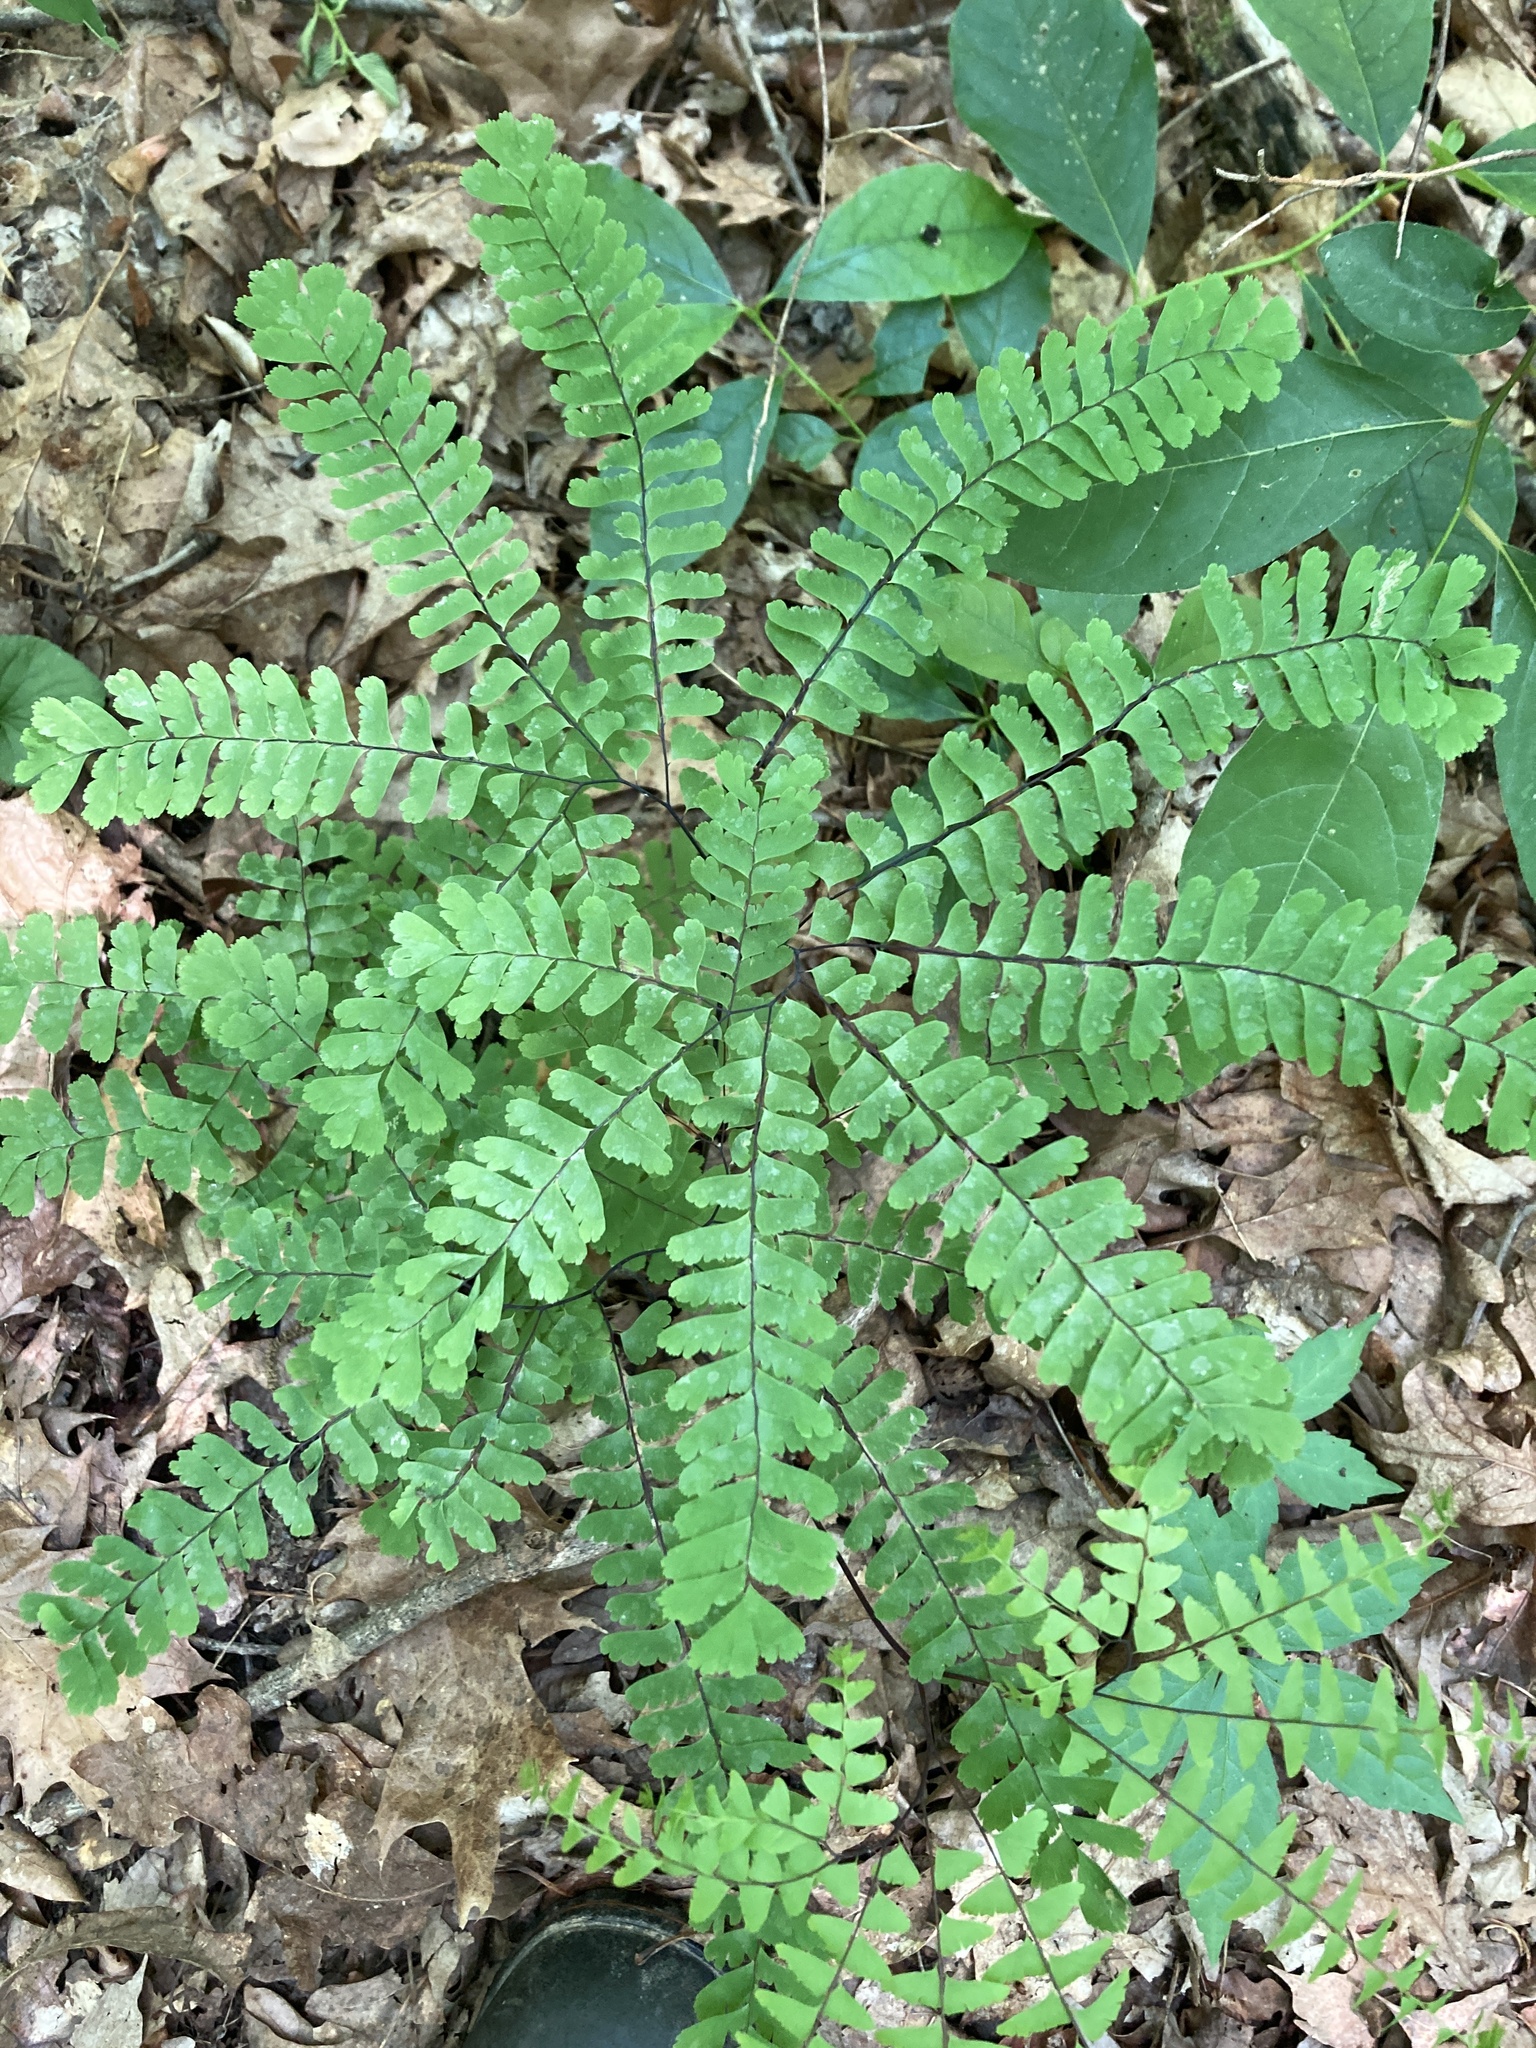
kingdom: Plantae
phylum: Tracheophyta
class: Polypodiopsida
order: Polypodiales
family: Pteridaceae
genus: Adiantum
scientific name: Adiantum pedatum
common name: Five-finger fern
